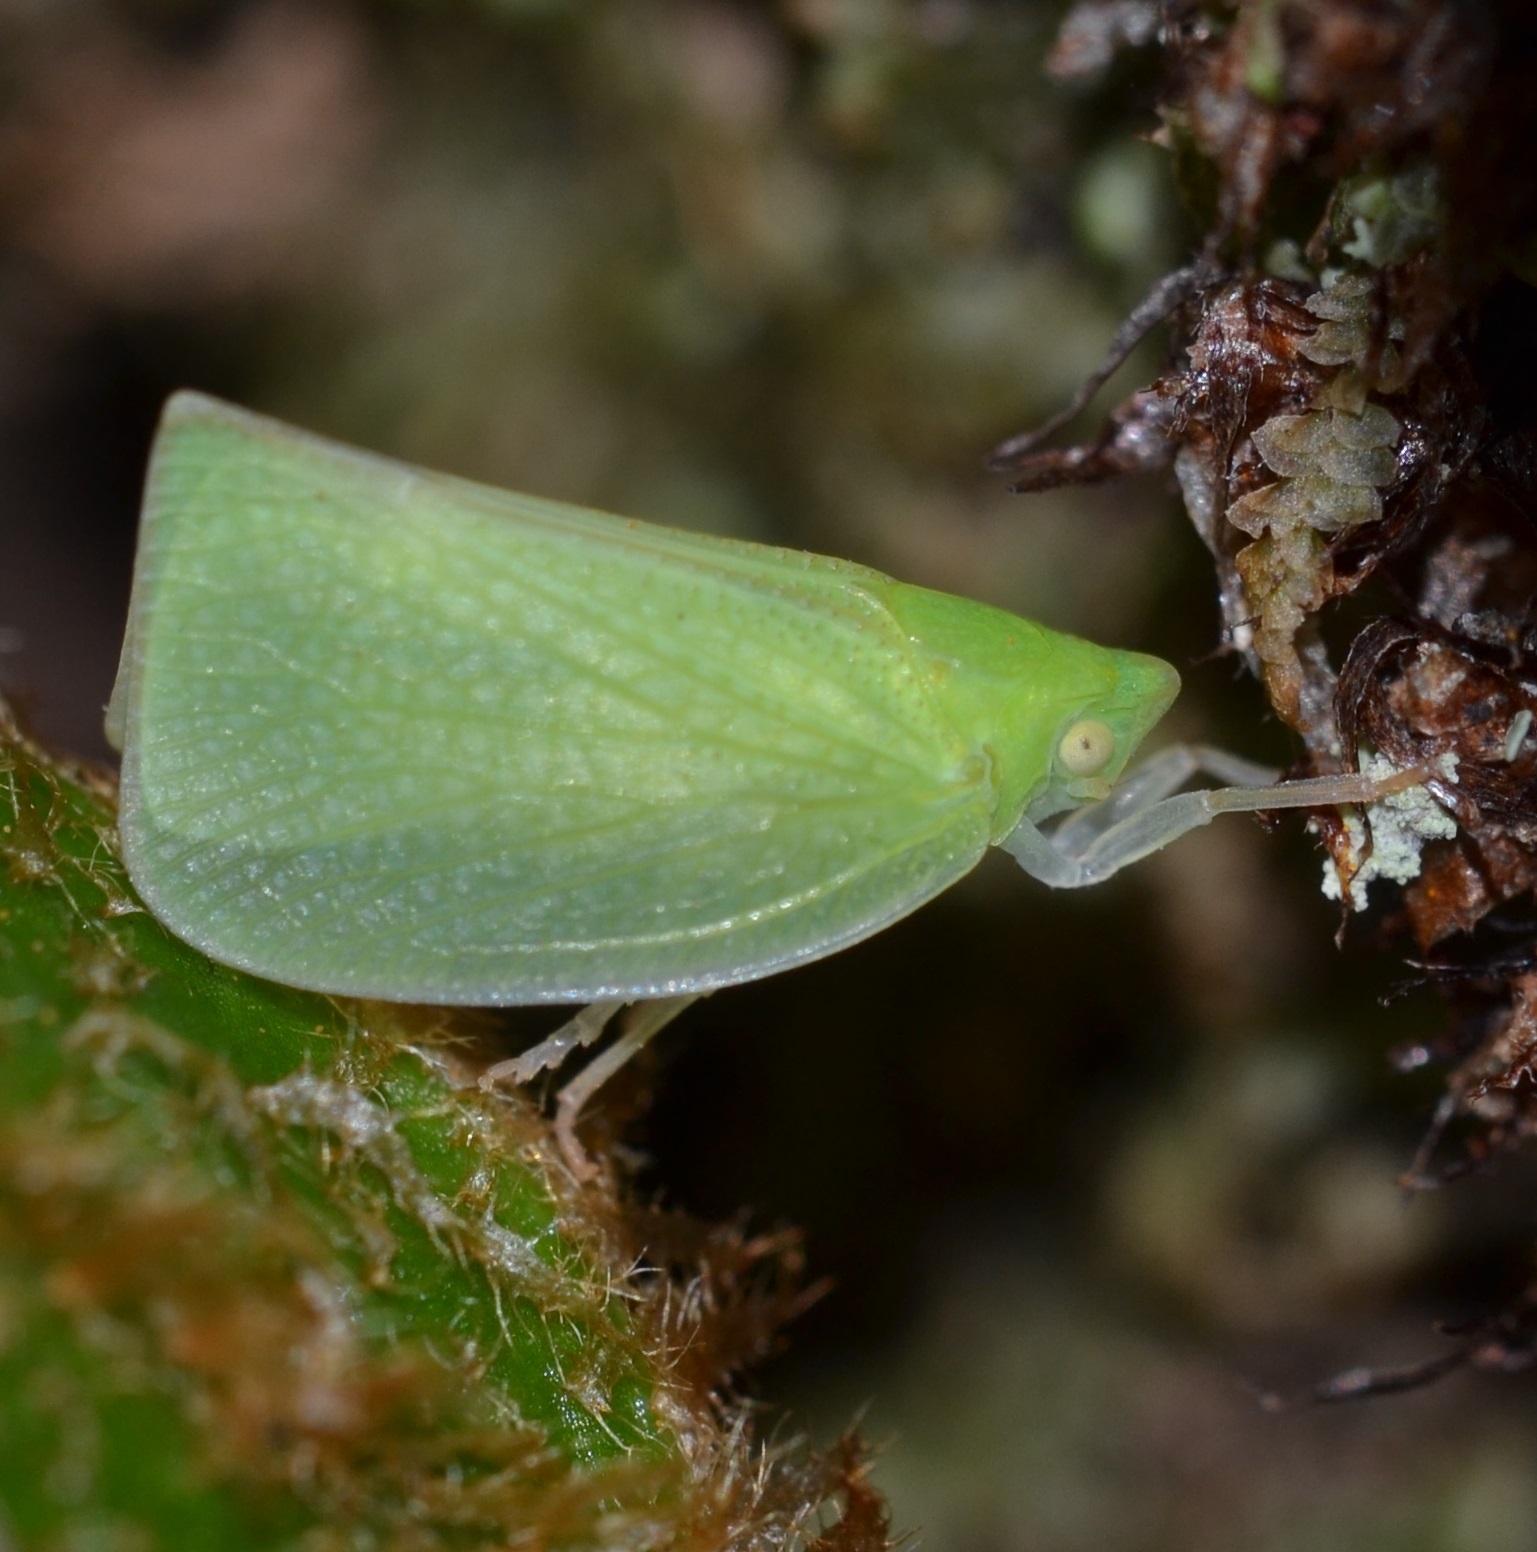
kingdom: Animalia
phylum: Arthropoda
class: Insecta
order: Hemiptera
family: Flatidae
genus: Siphanta
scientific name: Siphanta acuta
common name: Torpedo bug
